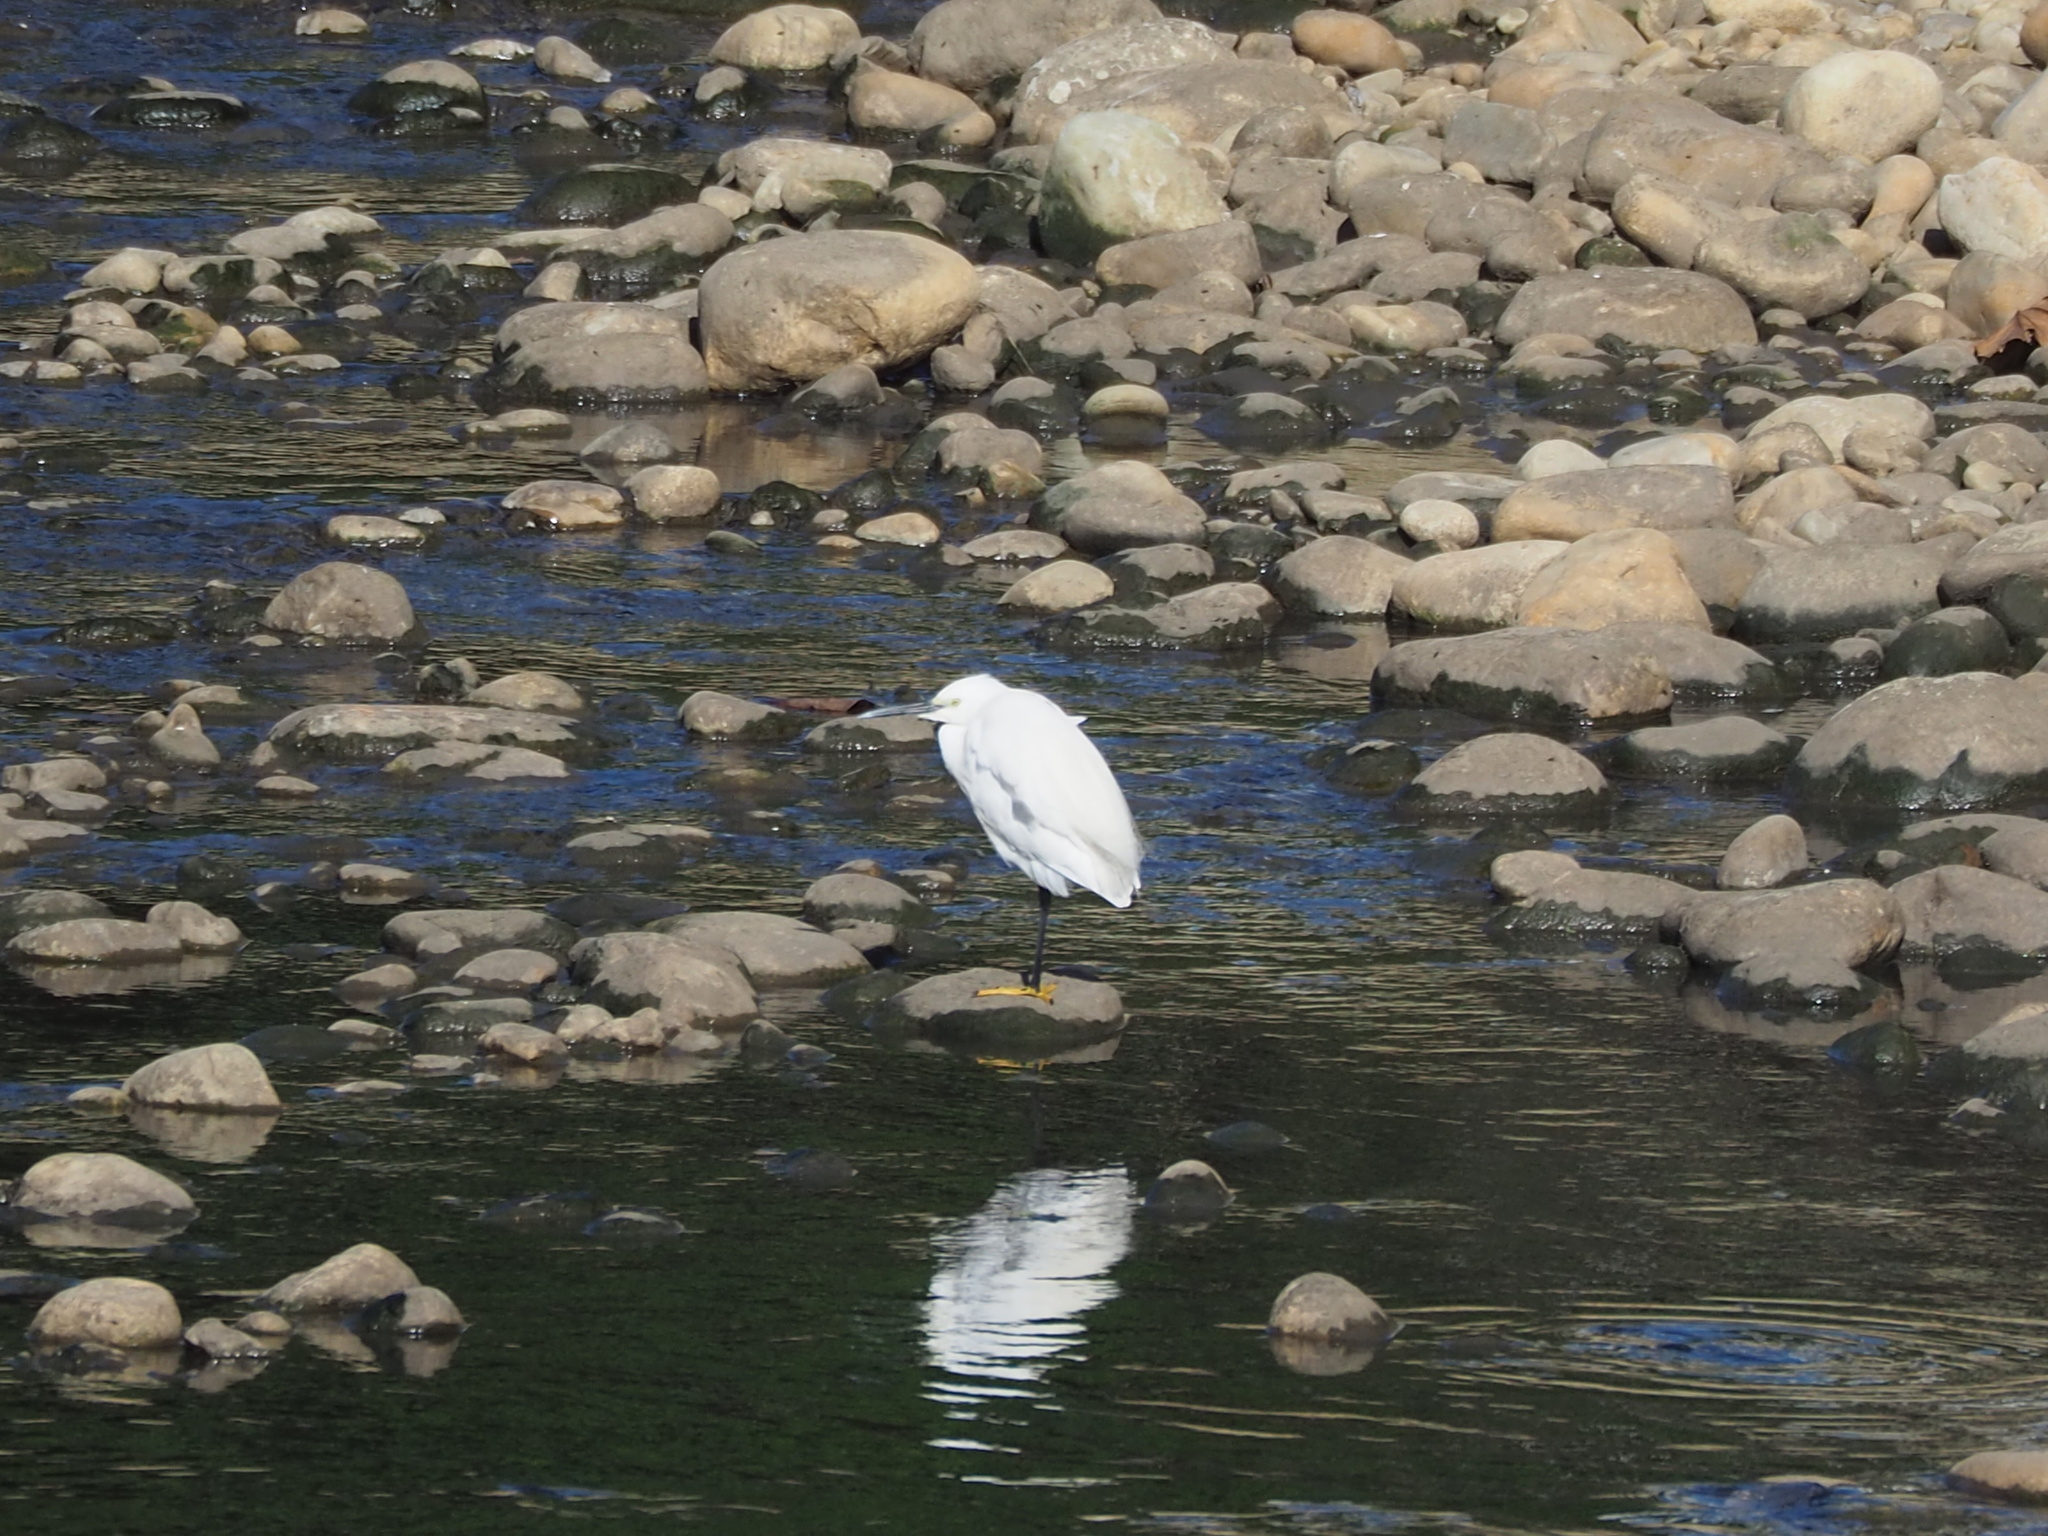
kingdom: Animalia
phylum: Chordata
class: Aves
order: Pelecaniformes
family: Ardeidae
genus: Egretta
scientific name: Egretta garzetta
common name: Little egret
